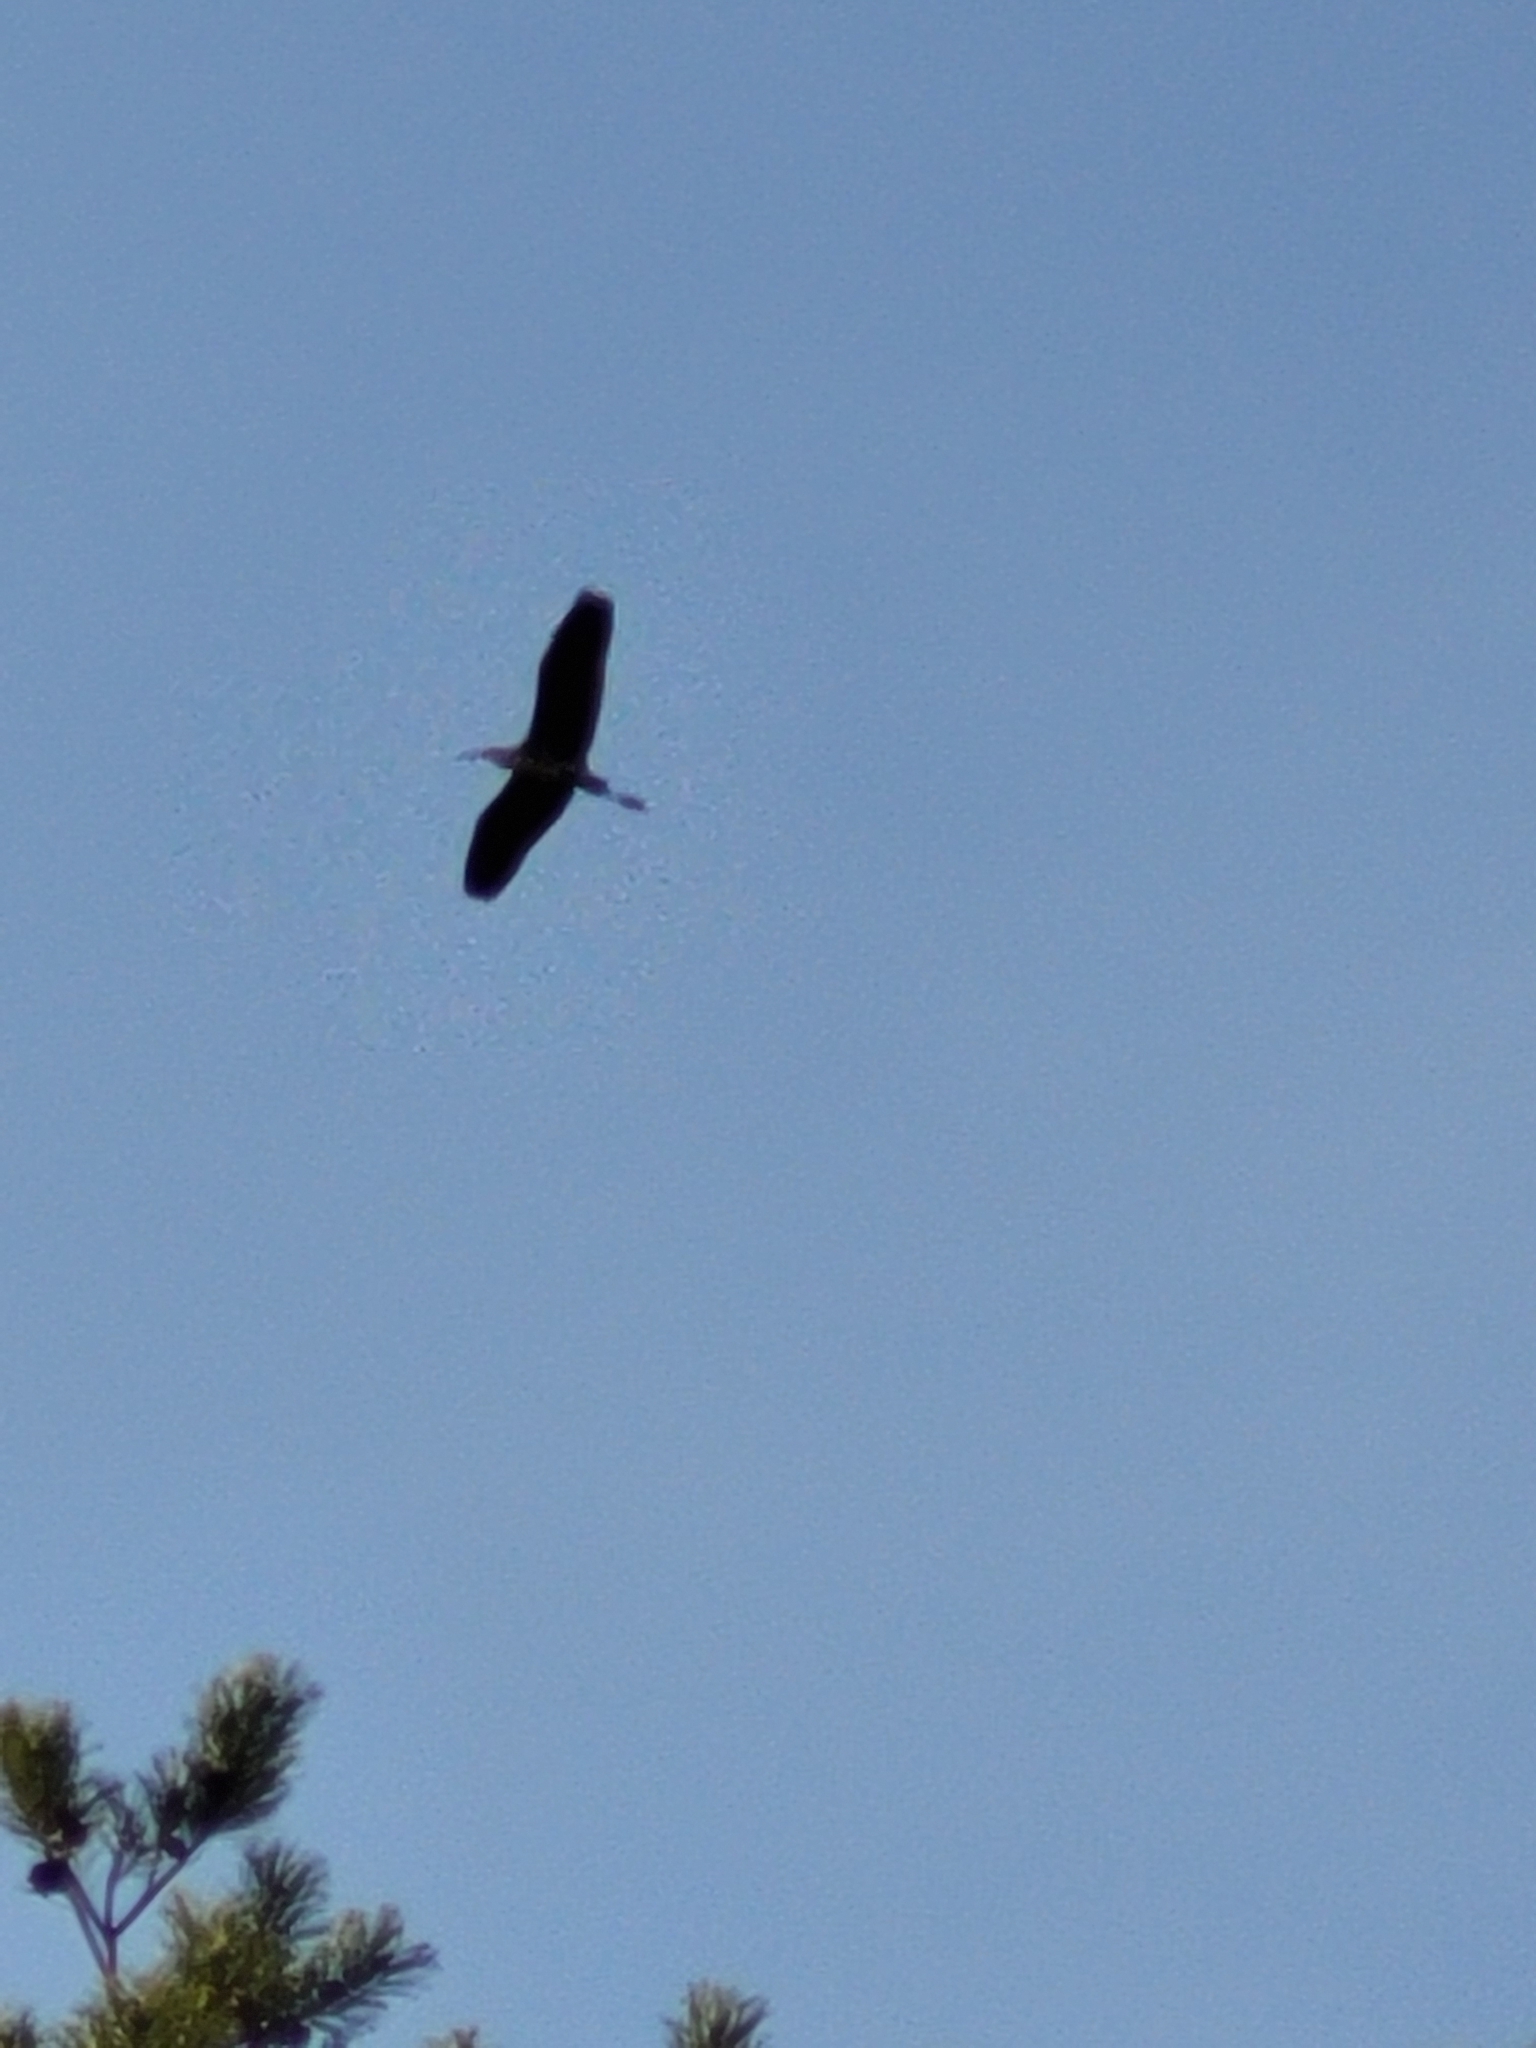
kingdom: Animalia
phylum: Chordata
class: Aves
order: Pelecaniformes
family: Ardeidae
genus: Ardea
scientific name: Ardea cinerea
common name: Grey heron
